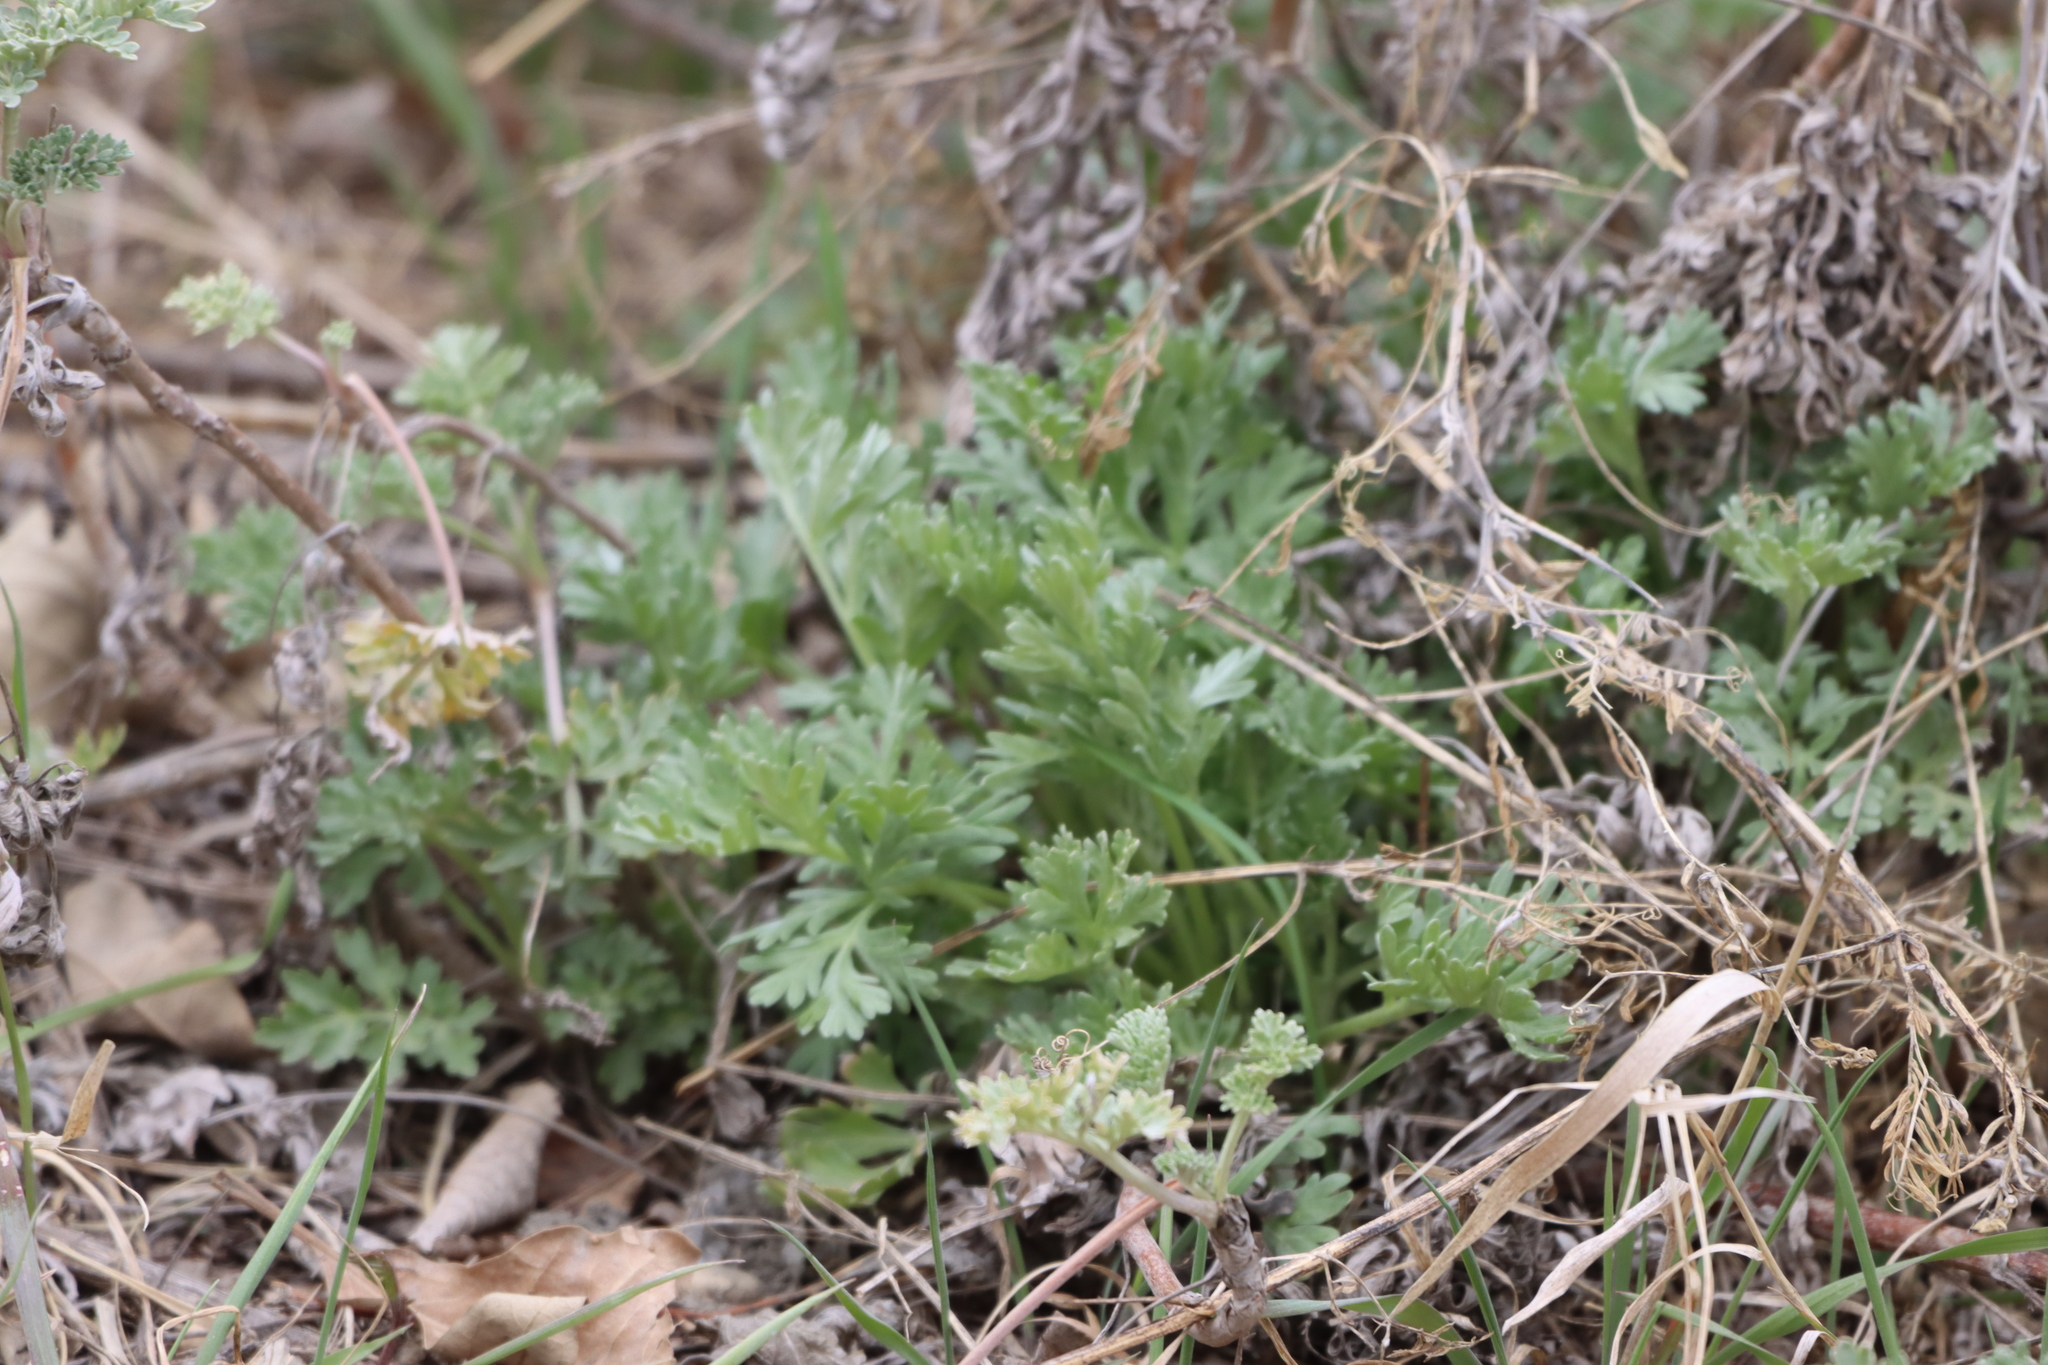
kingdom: Plantae
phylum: Tracheophyta
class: Magnoliopsida
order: Asterales
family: Asteraceae
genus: Artemisia
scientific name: Artemisia absinthium
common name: Wormwood
